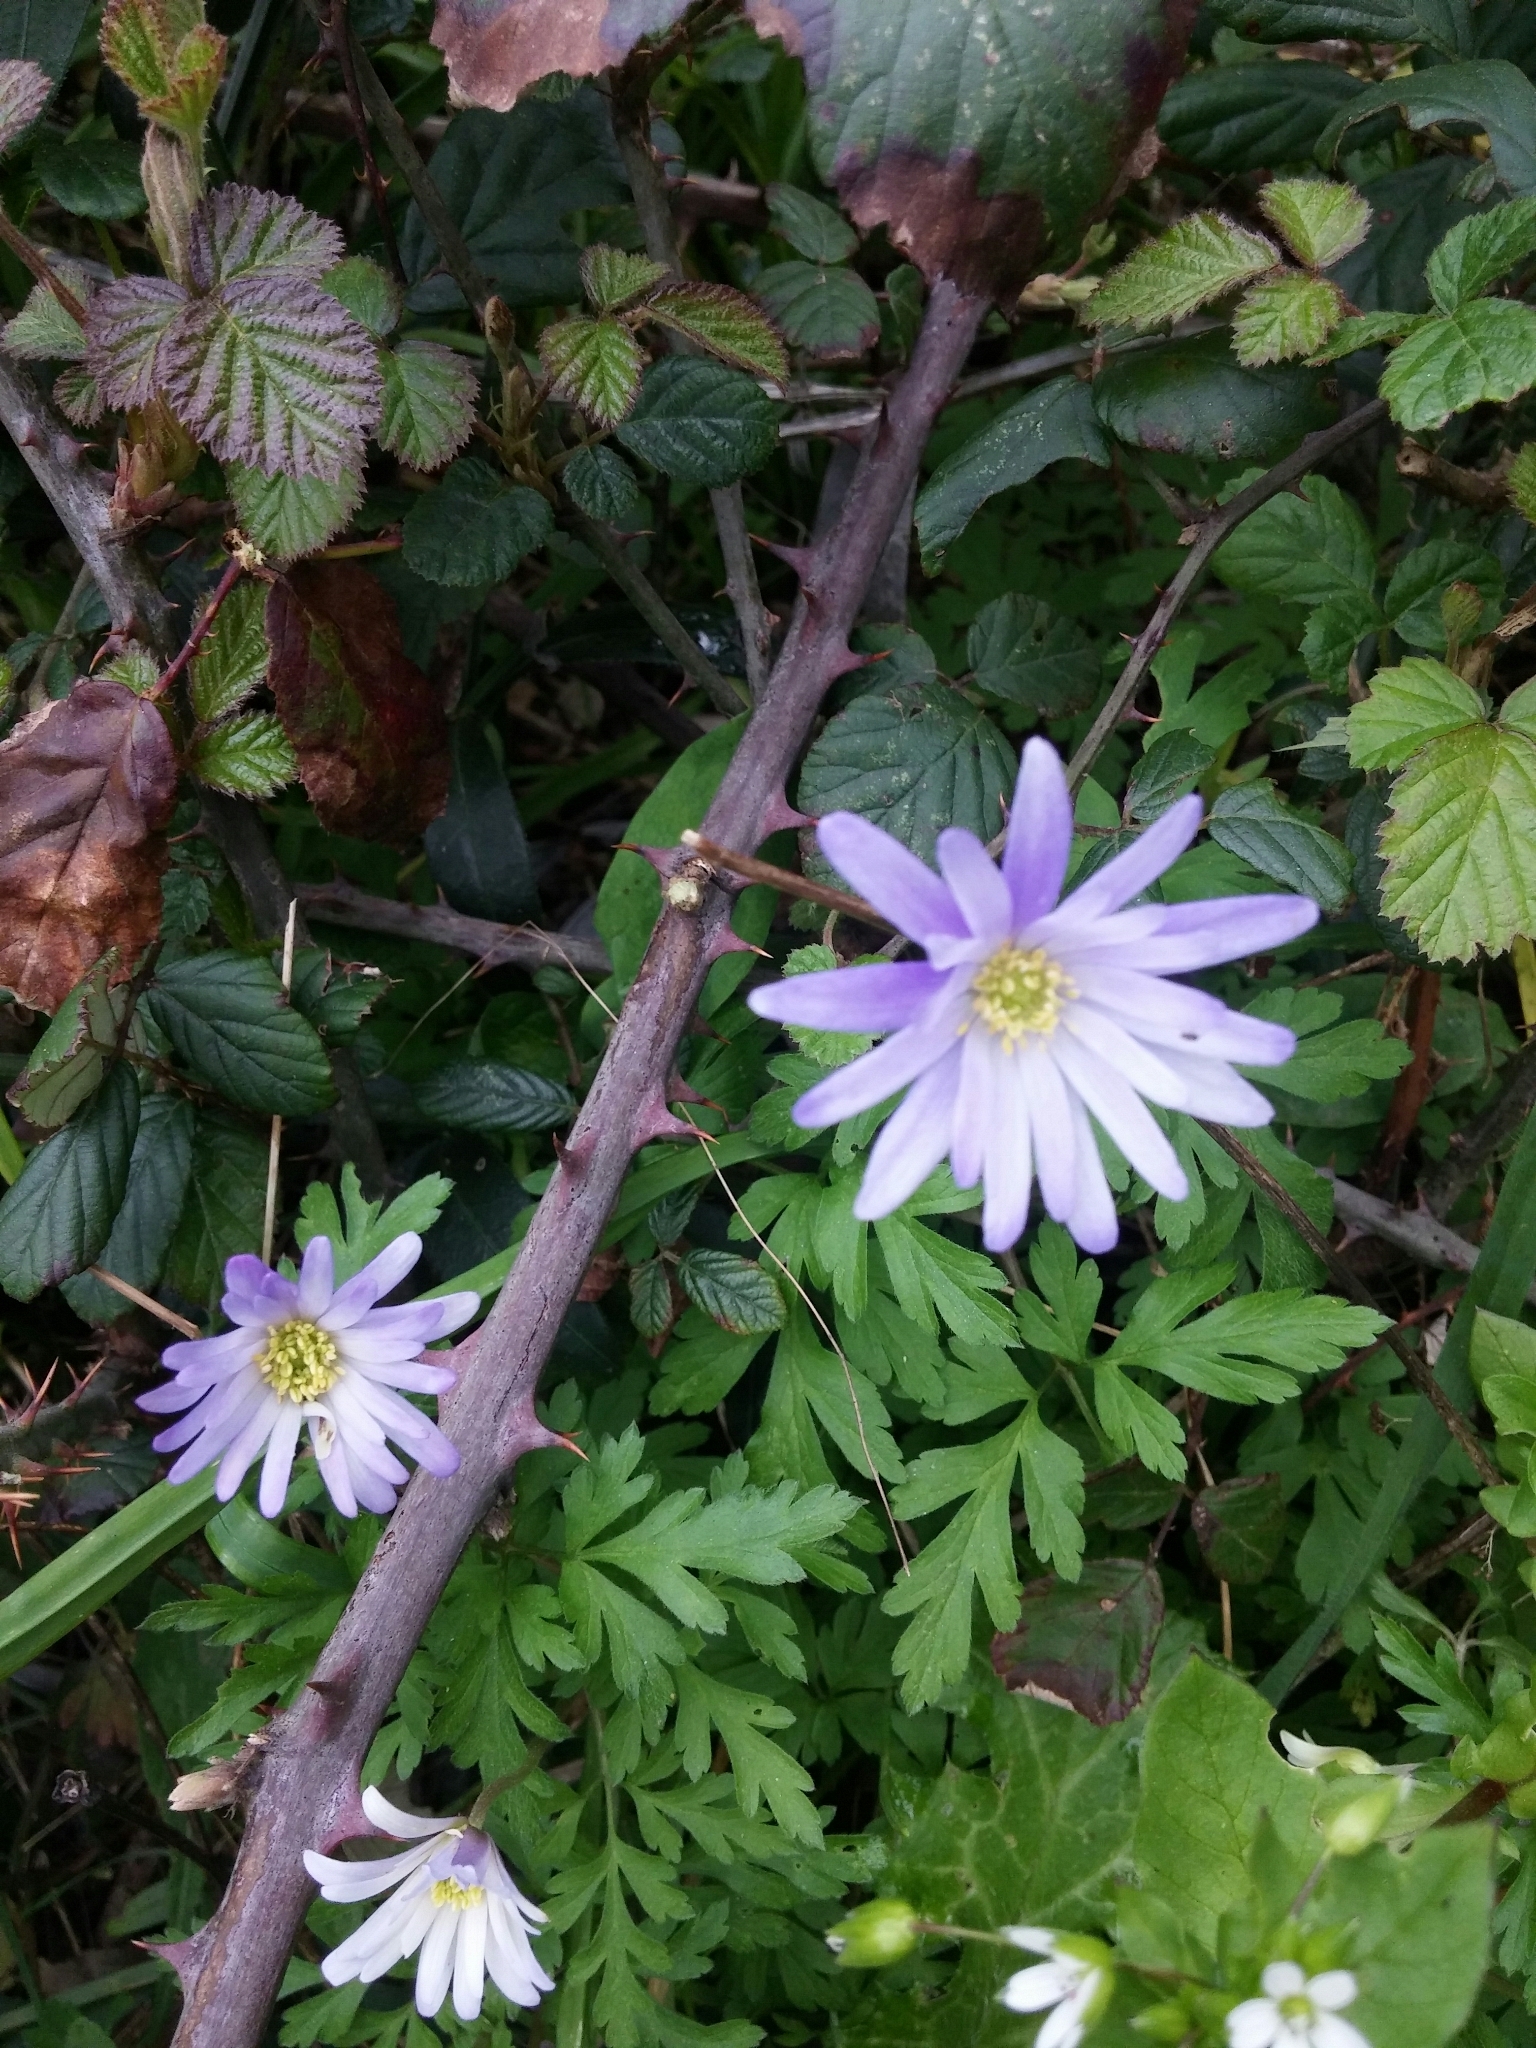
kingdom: Plantae
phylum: Tracheophyta
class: Magnoliopsida
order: Ranunculales
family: Ranunculaceae
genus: Anemone
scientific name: Anemone apennina
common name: Blue anemone
